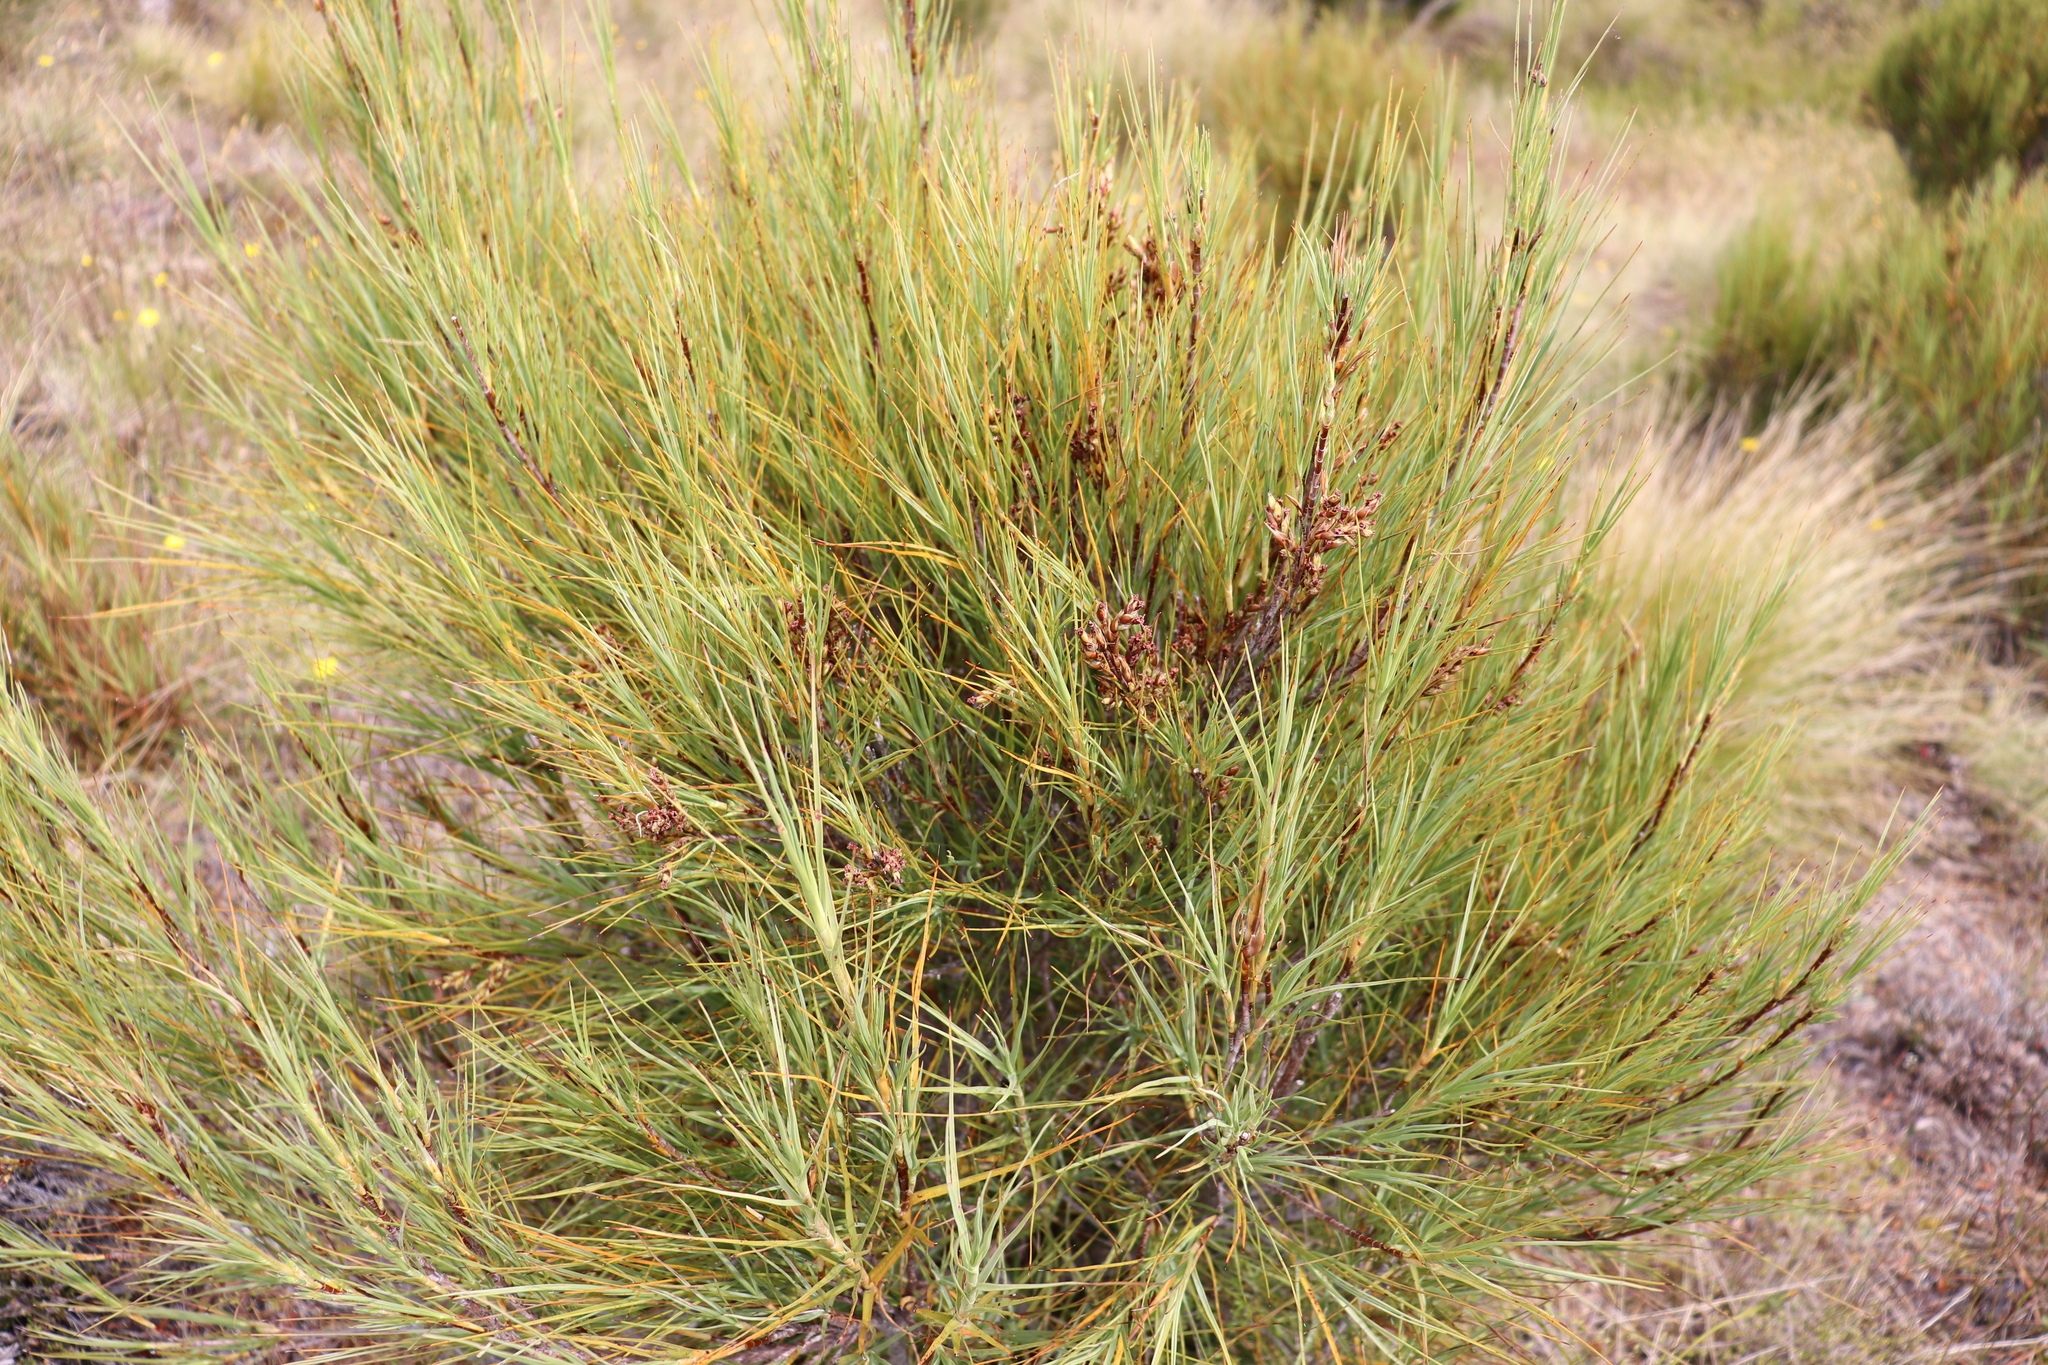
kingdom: Plantae
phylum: Tracheophyta
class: Magnoliopsida
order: Ericales
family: Ericaceae
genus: Dracophyllum
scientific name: Dracophyllum longifolium
